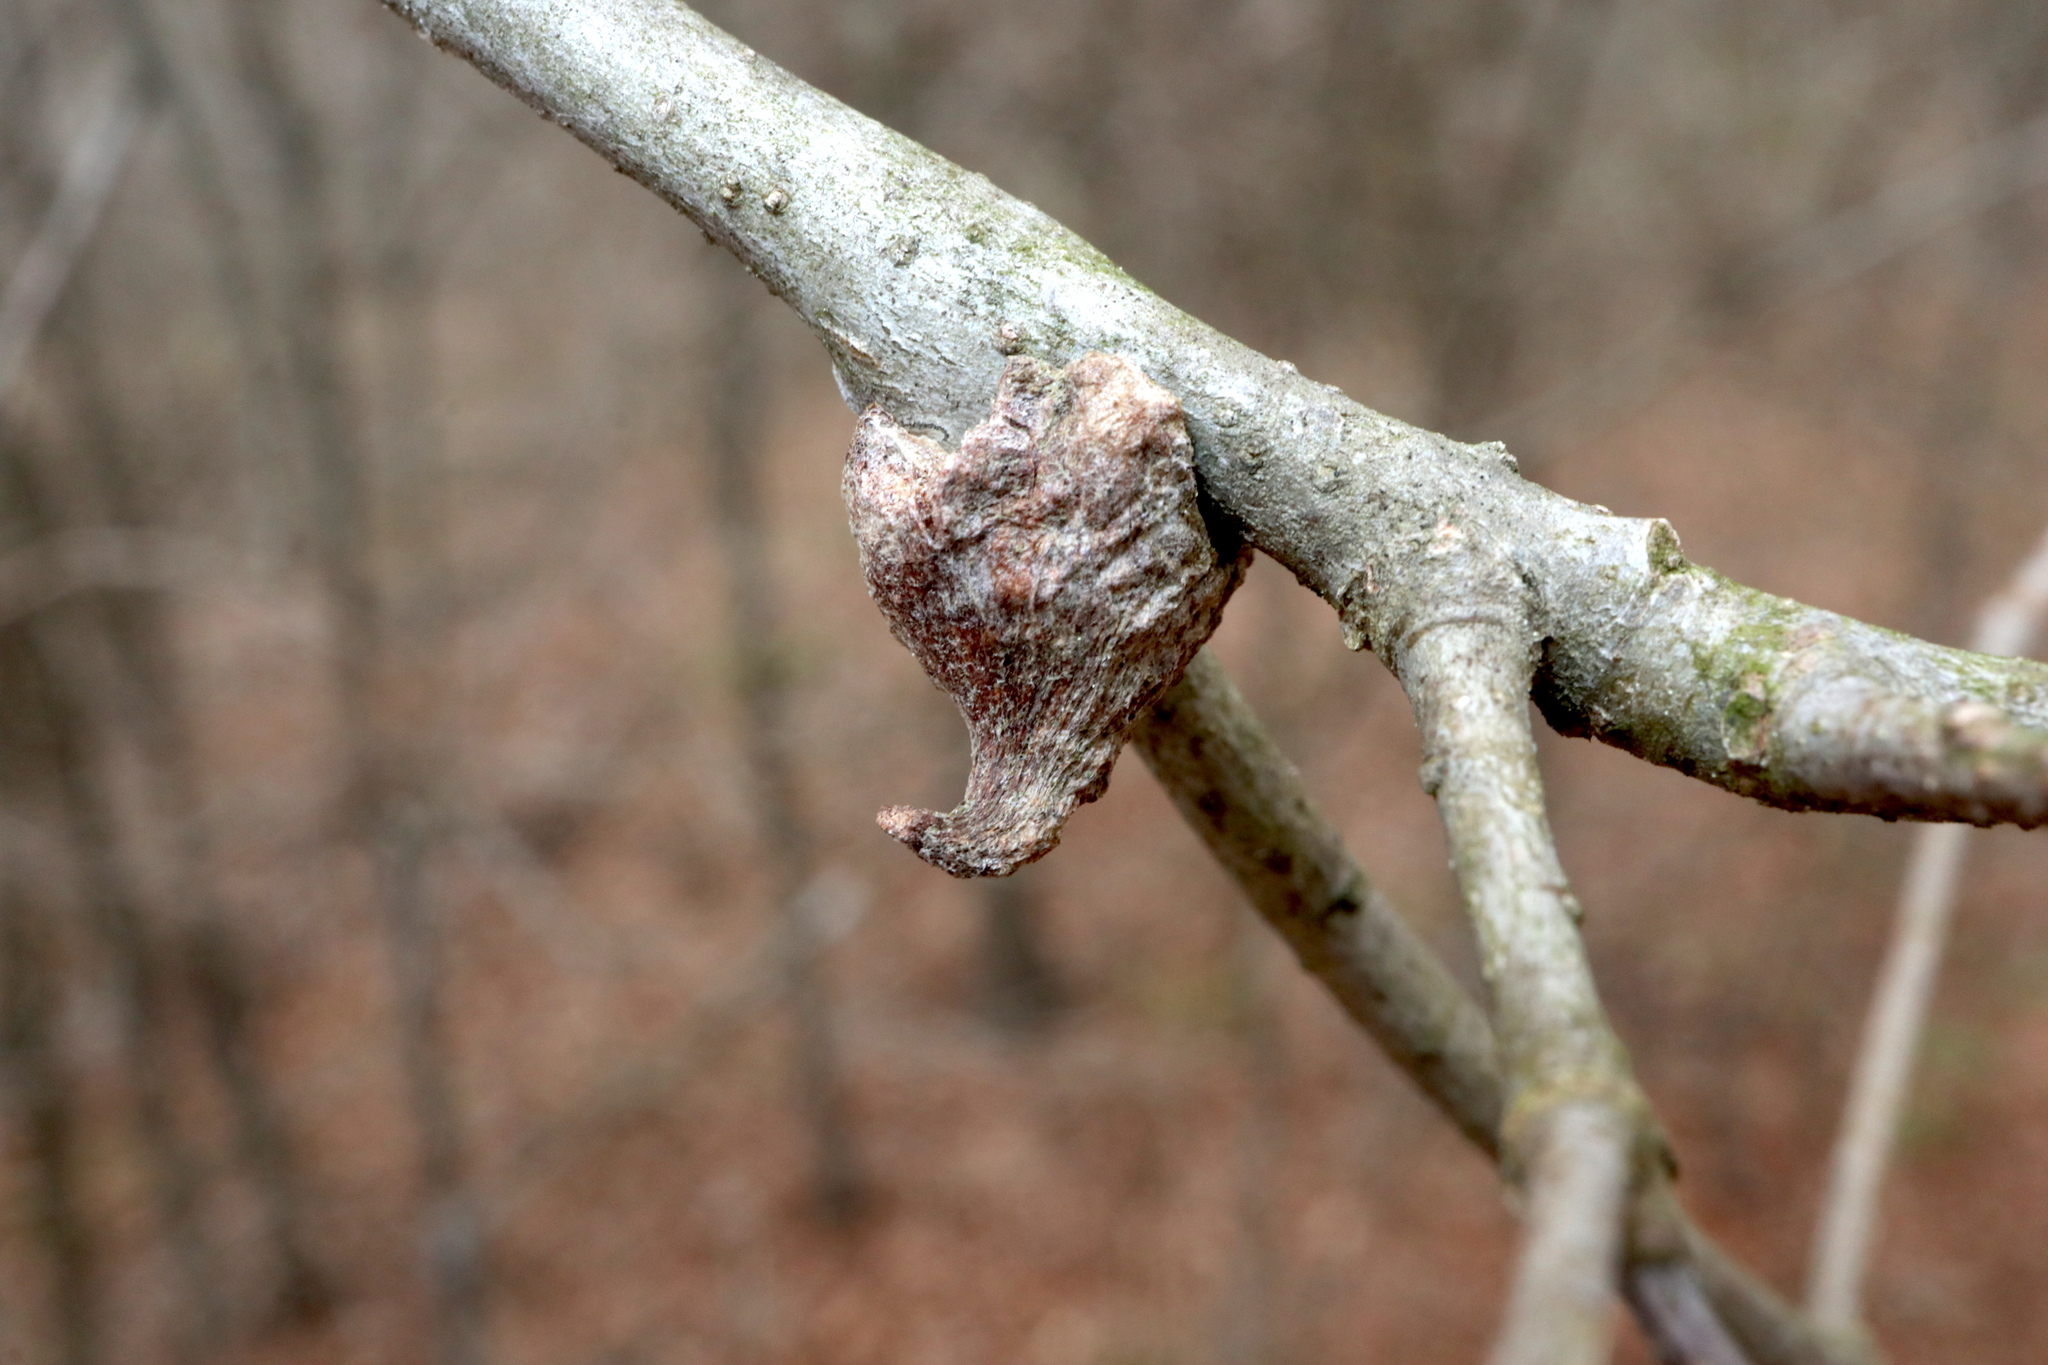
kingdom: Animalia
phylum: Arthropoda
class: Insecta
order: Hymenoptera
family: Cynipidae
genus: Callirhytis
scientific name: Callirhytis
